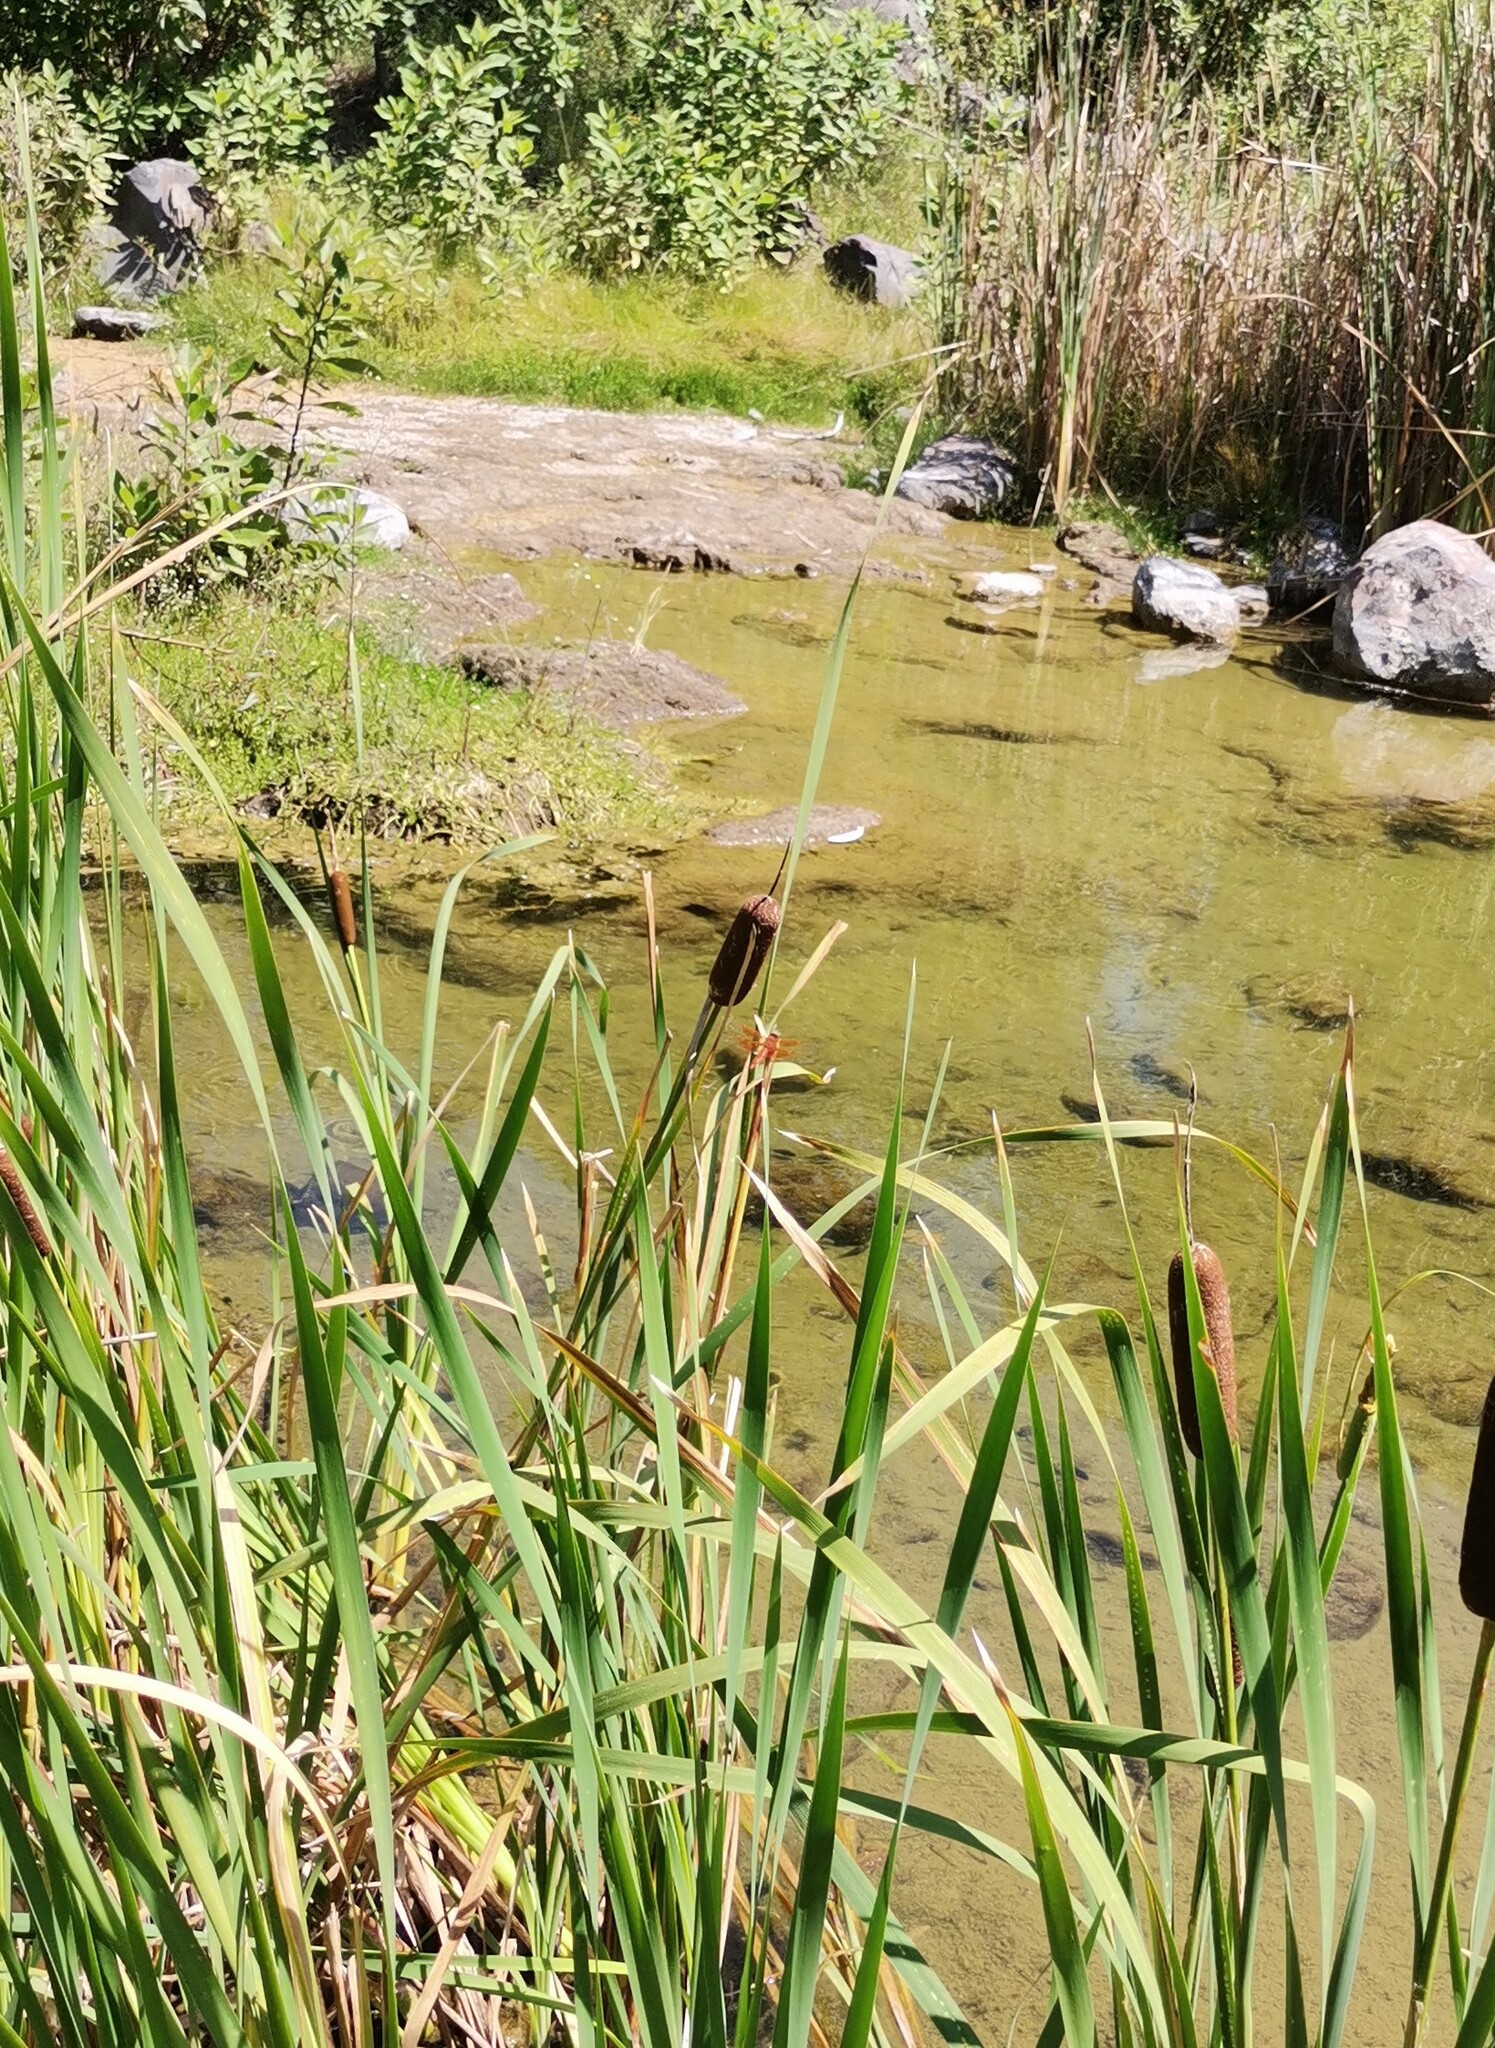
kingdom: Animalia
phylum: Arthropoda
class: Insecta
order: Odonata
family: Libellulidae
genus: Libellula
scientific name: Libellula saturata
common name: Flame skimmer
